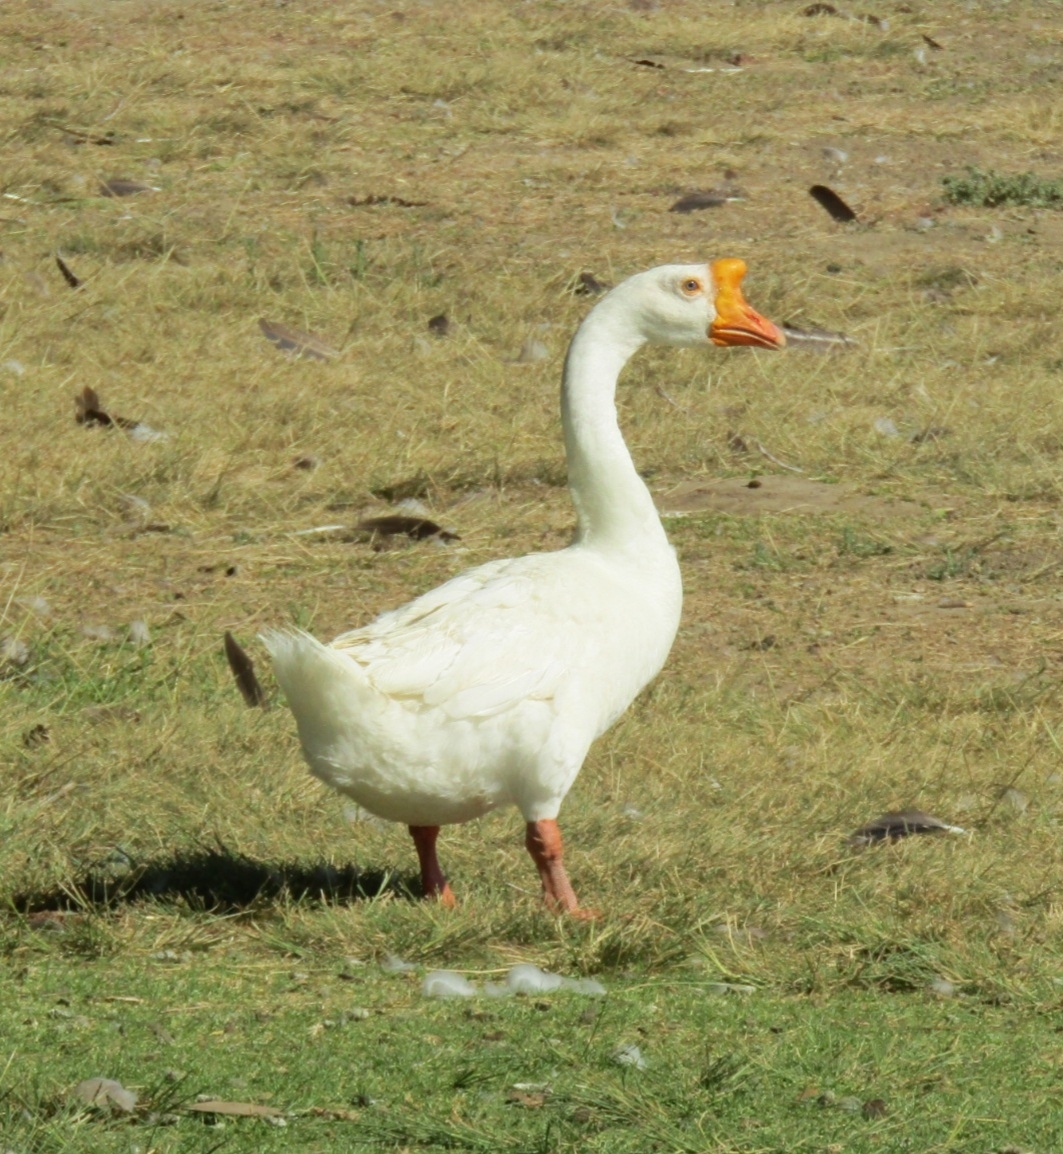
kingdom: Animalia
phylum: Chordata
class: Aves
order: Anseriformes
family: Anatidae
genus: Anser
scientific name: Anser cygnoides
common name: Swan goose
